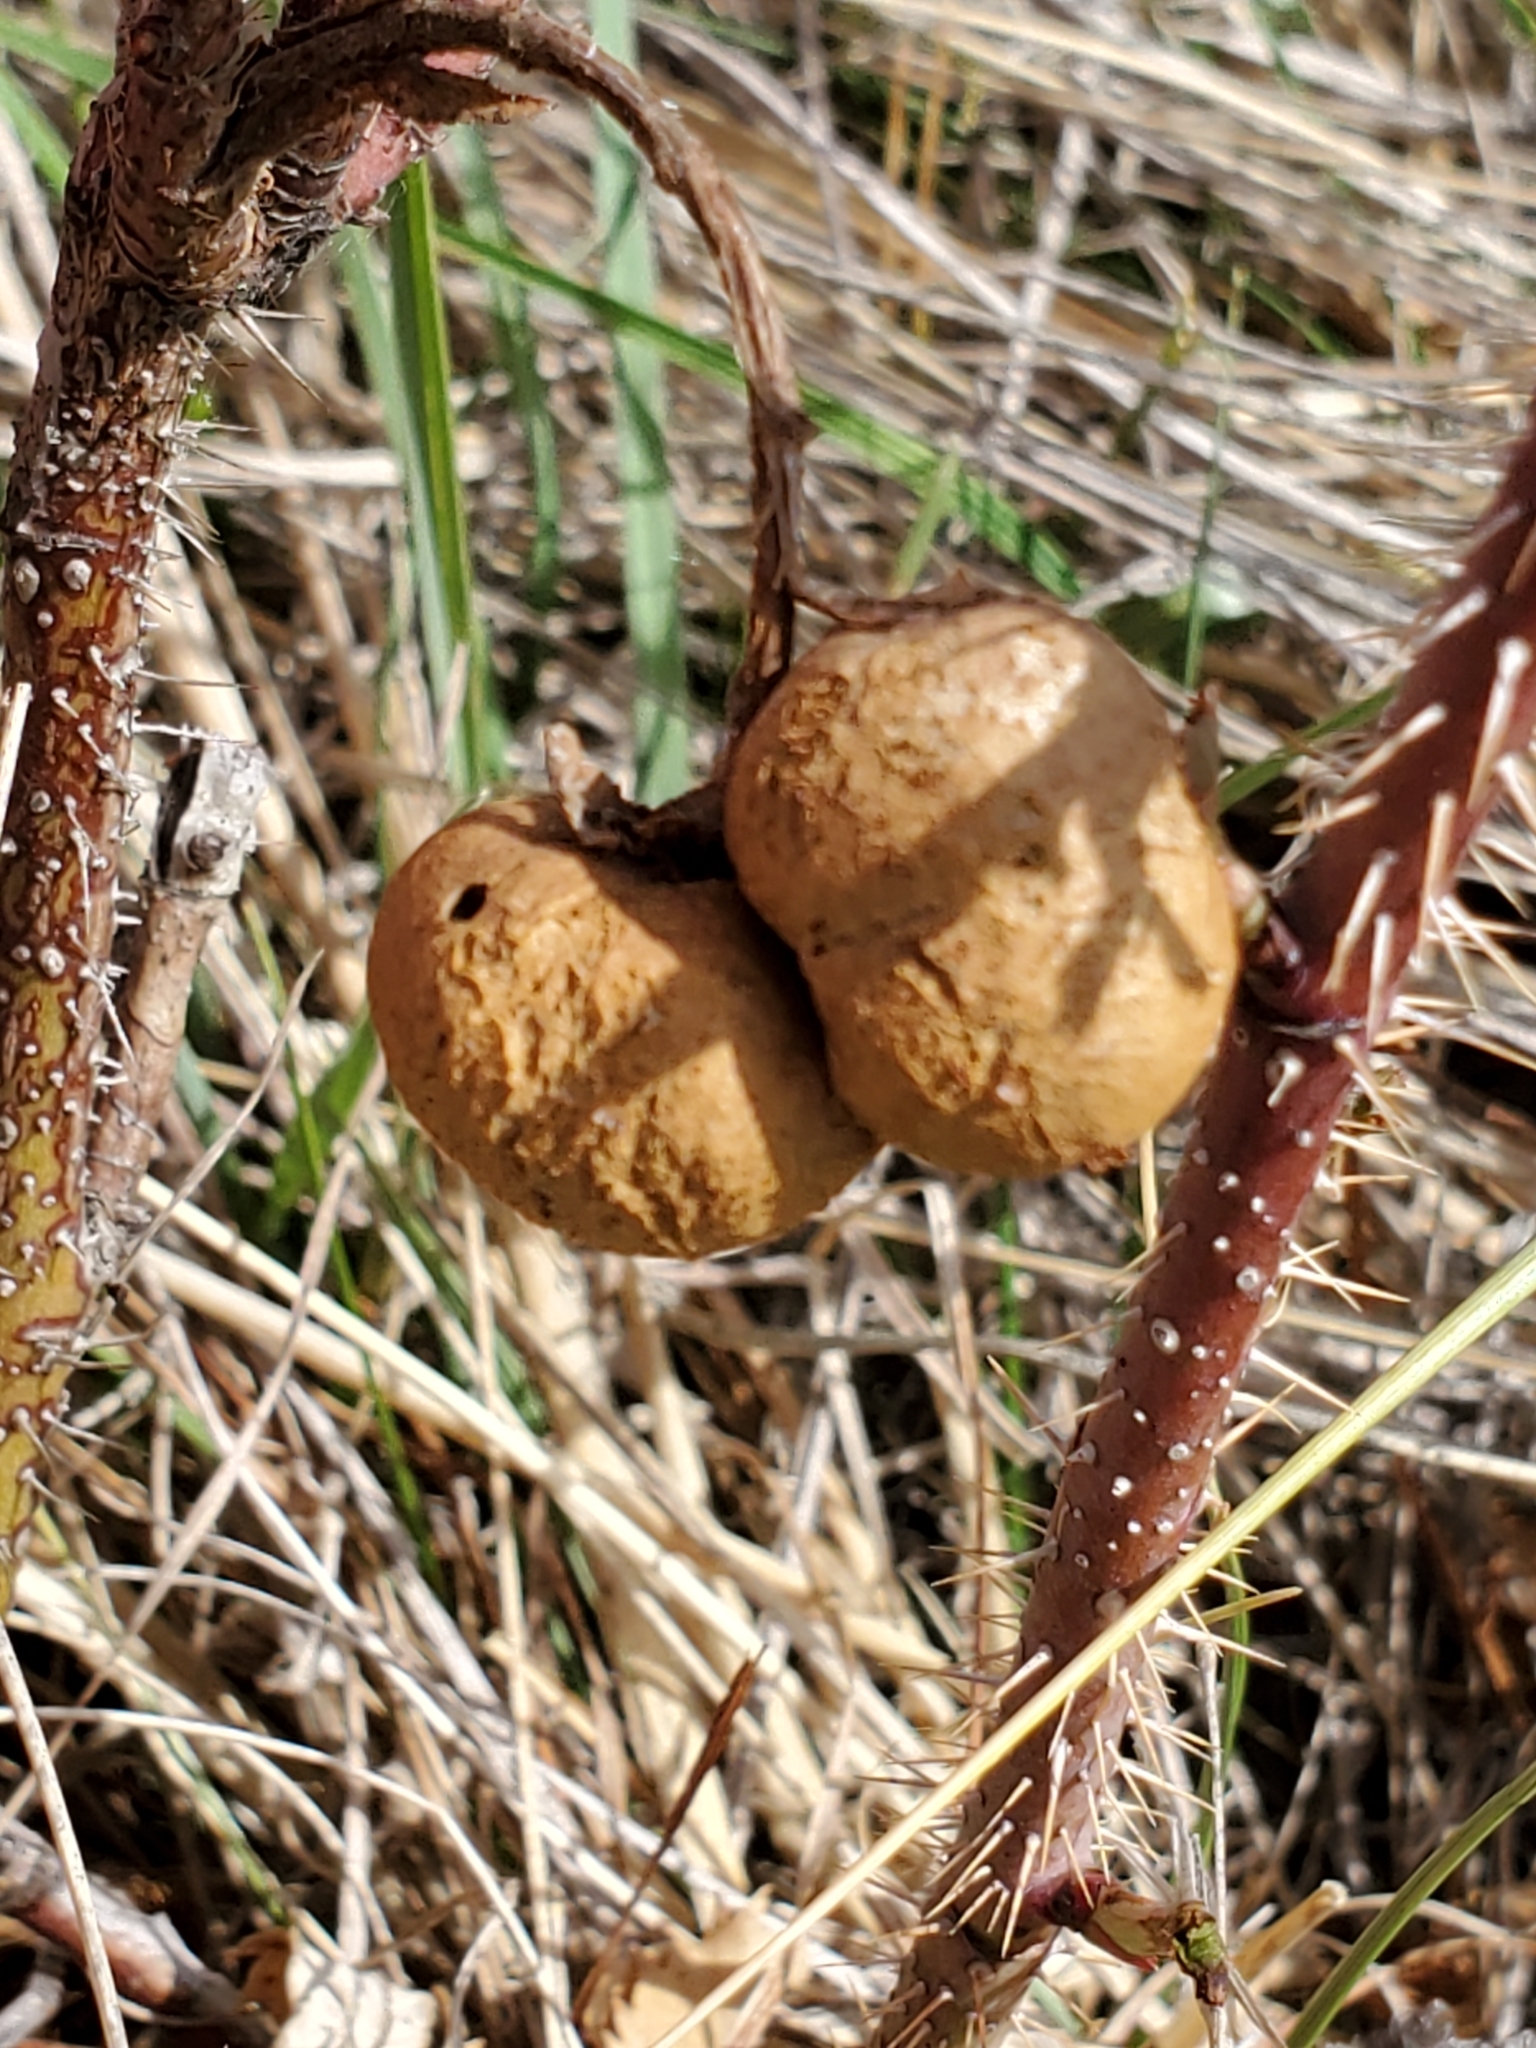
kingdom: Animalia
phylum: Arthropoda
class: Insecta
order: Hymenoptera
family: Cynipidae
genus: Diplolepis
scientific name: Diplolepis ignota
